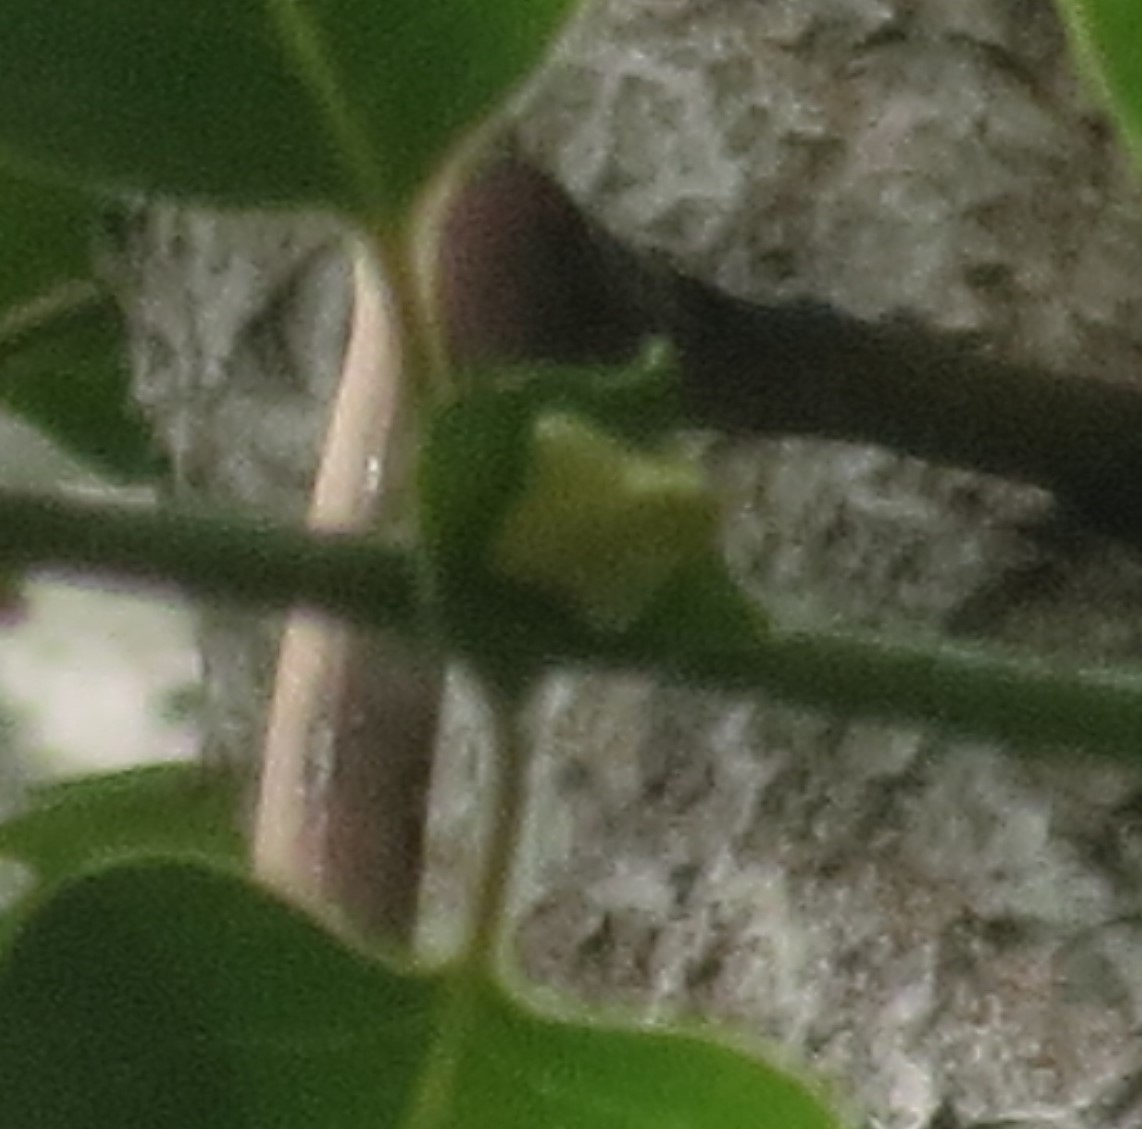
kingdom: Plantae
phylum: Tracheophyta
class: Magnoliopsida
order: Ericales
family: Ebenaceae
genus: Diospyros
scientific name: Diospyros virginiana
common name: Persimmon
